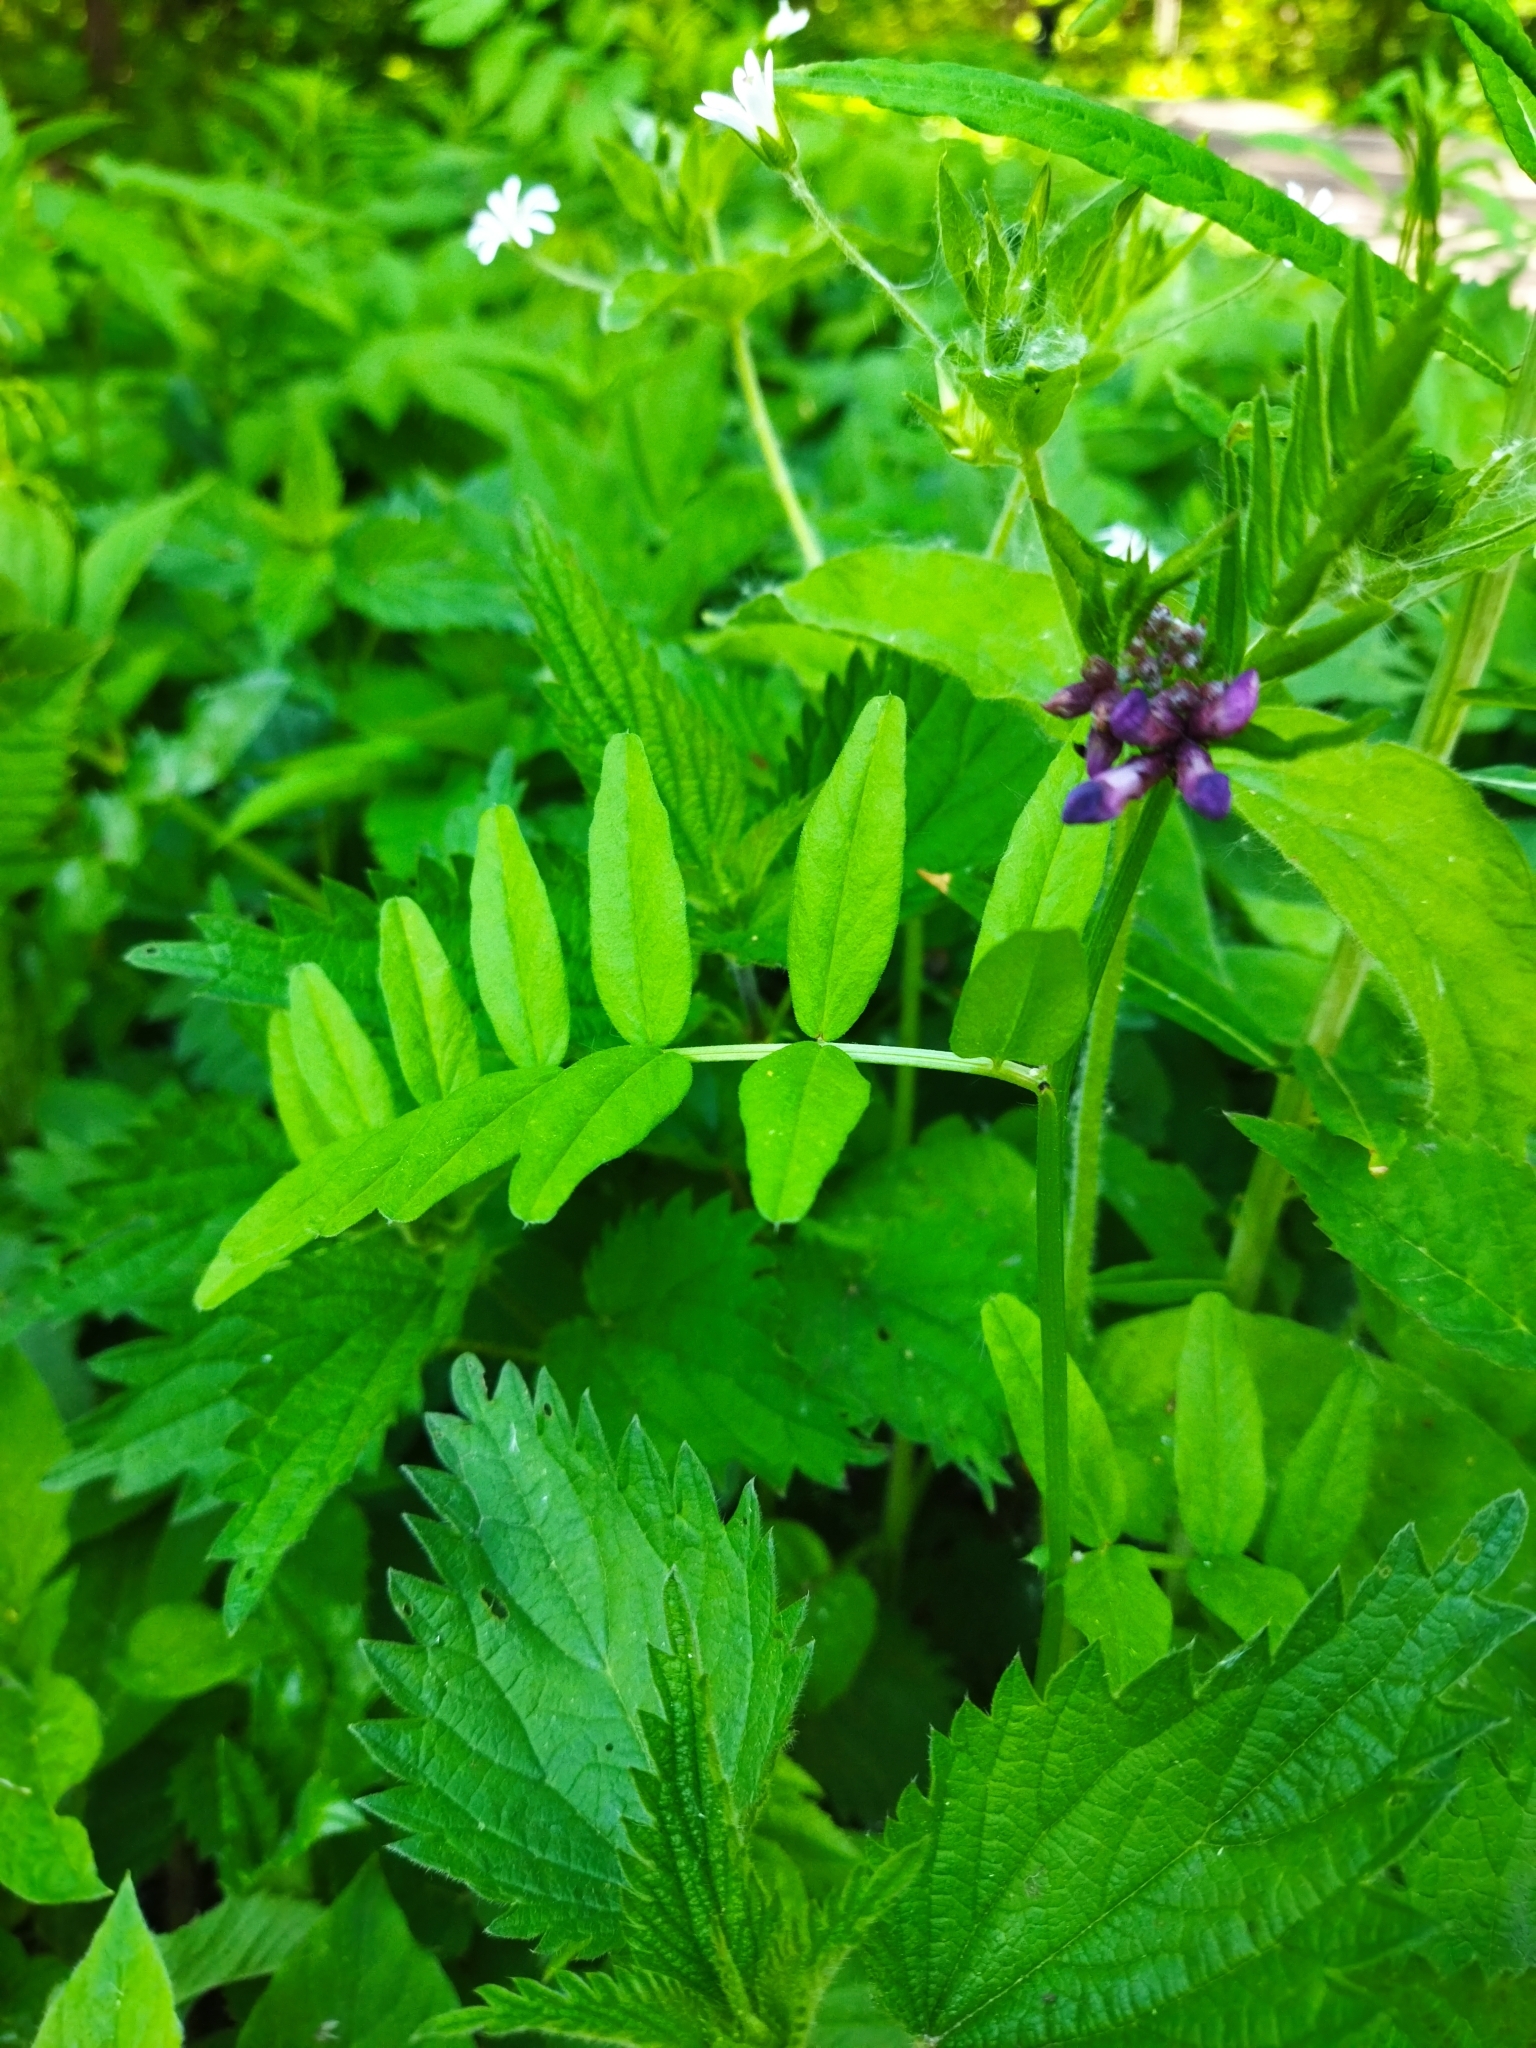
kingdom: Plantae
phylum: Tracheophyta
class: Magnoliopsida
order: Fabales
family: Fabaceae
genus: Vicia
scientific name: Vicia sepium
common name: Bush vetch
